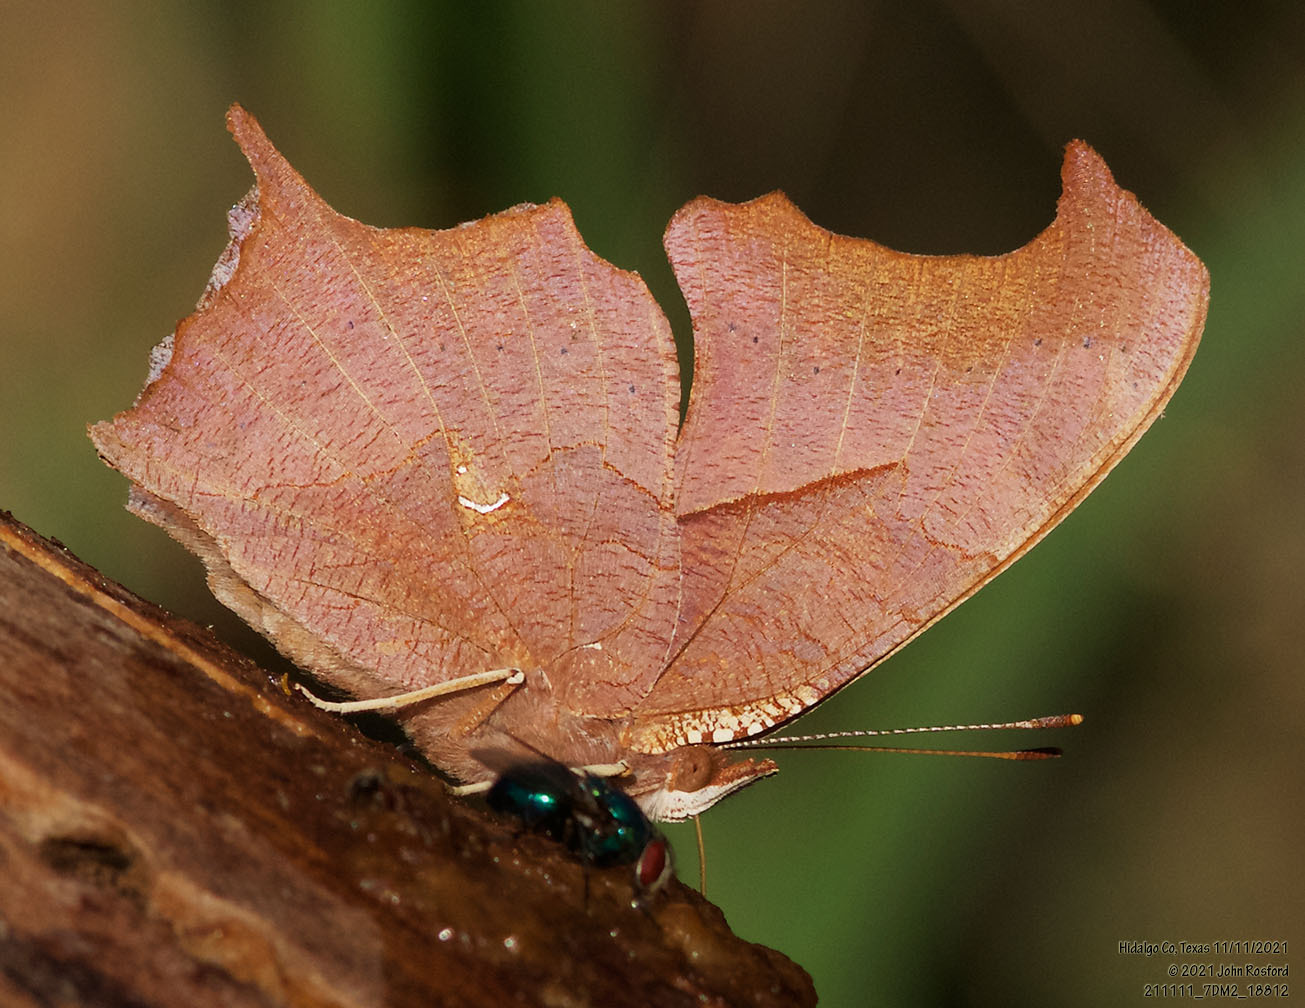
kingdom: Animalia
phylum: Arthropoda
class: Insecta
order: Lepidoptera
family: Nymphalidae
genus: Polygonia
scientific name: Polygonia interrogationis
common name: Question mark
